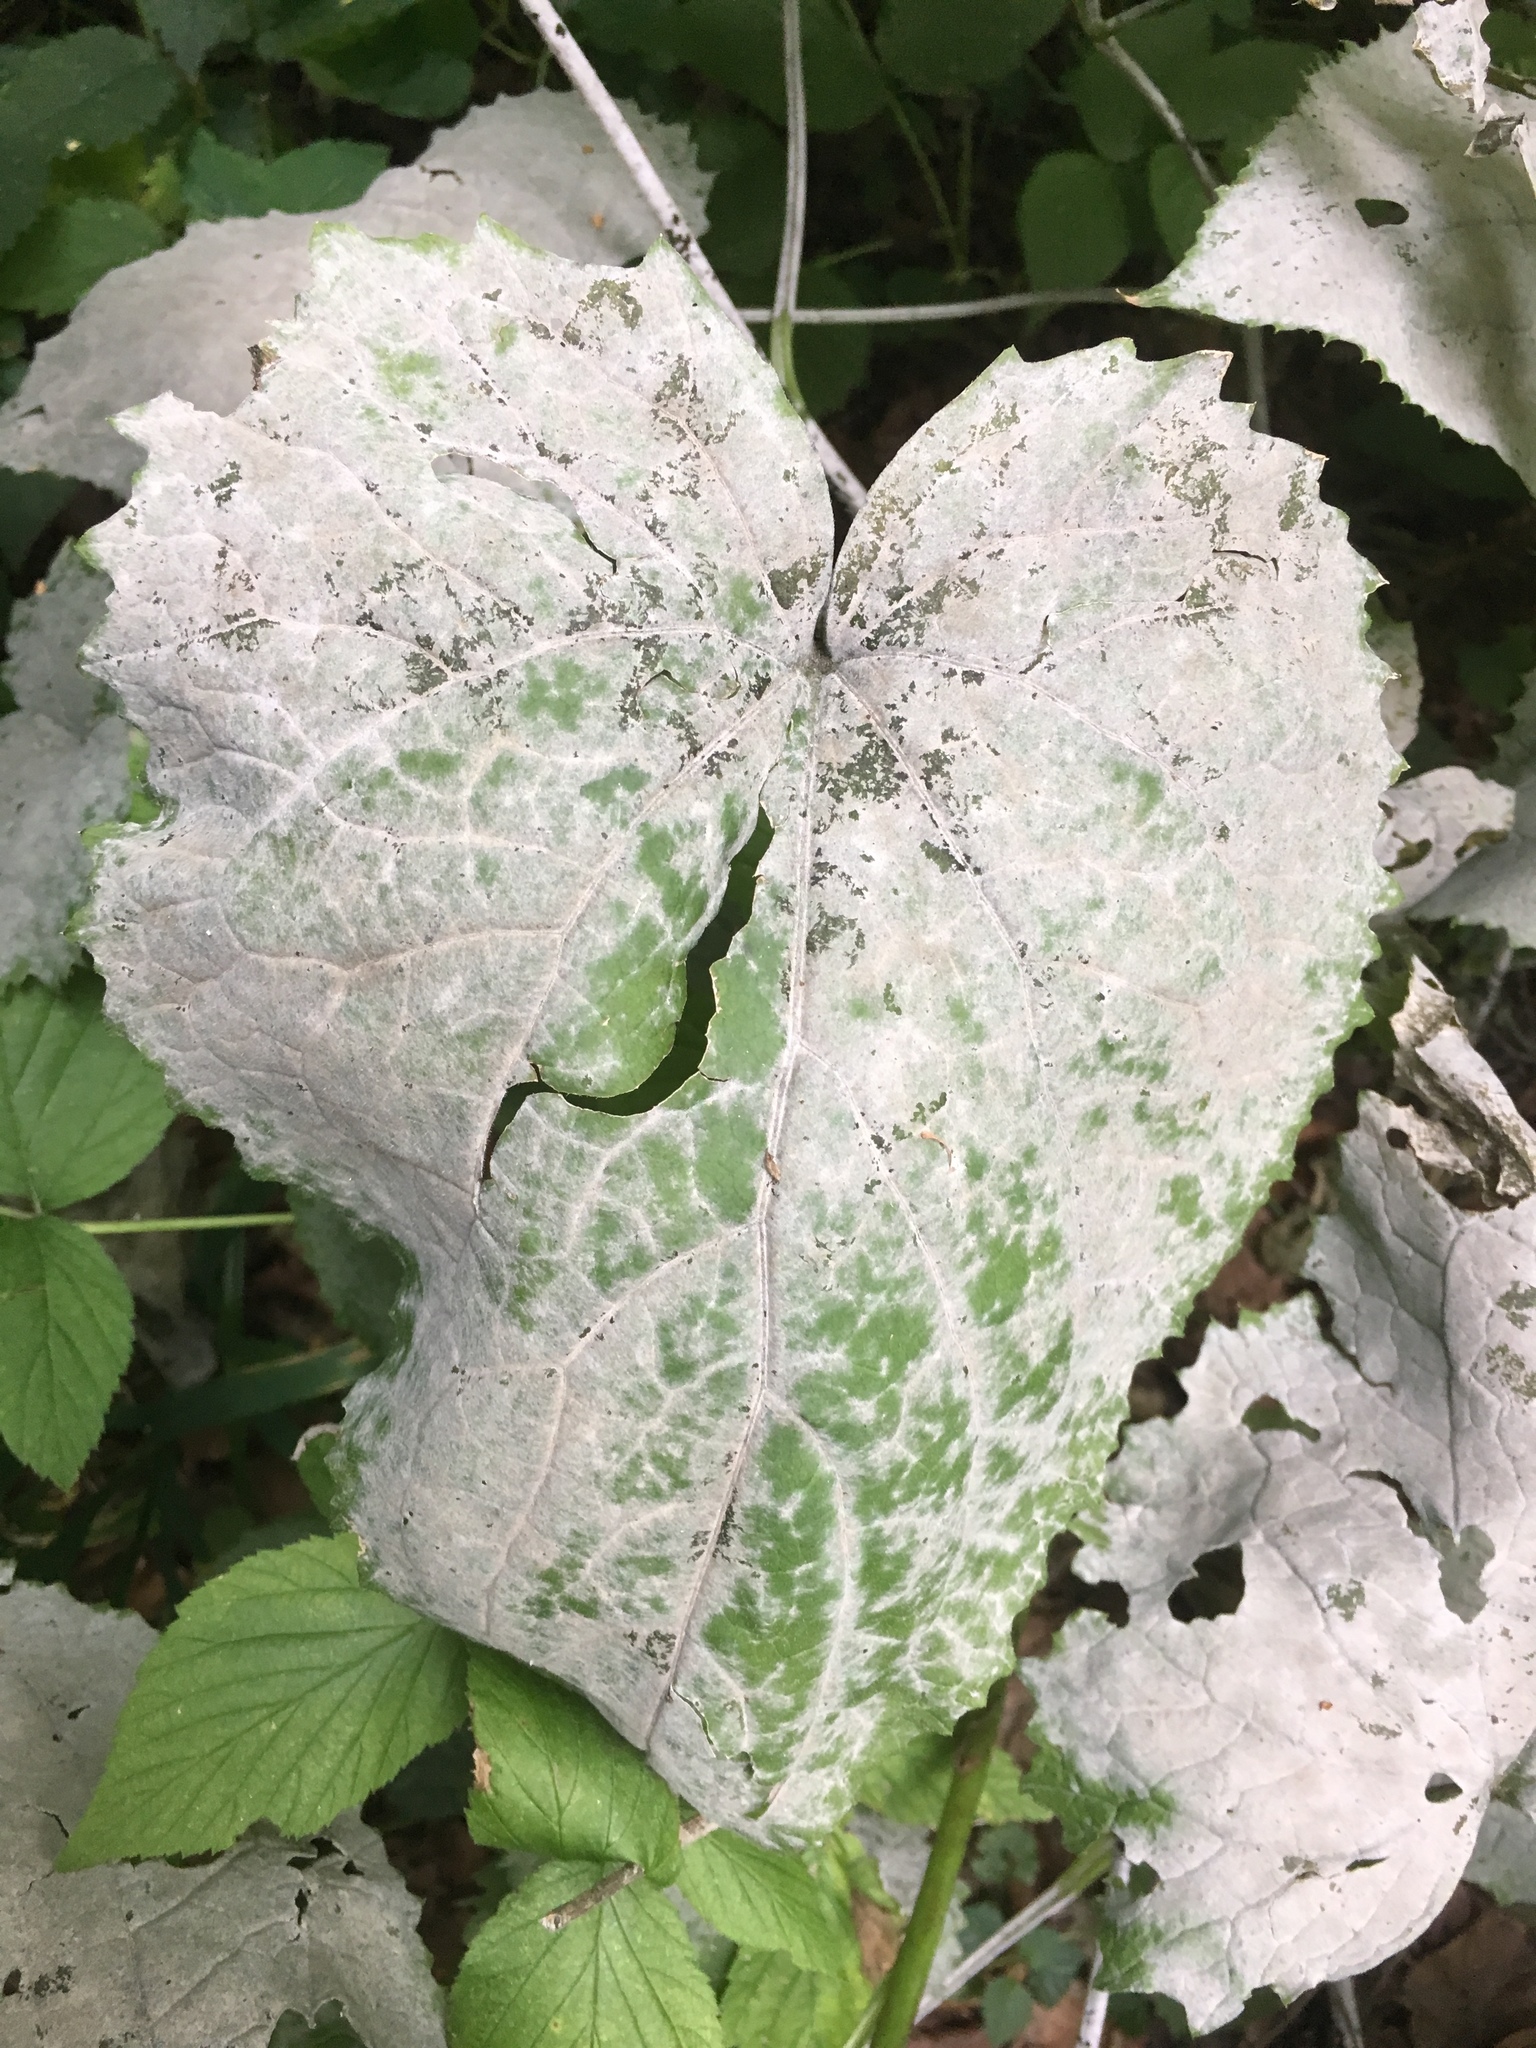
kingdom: Plantae
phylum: Tracheophyta
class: Magnoliopsida
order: Brassicales
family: Brassicaceae
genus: Lunaria
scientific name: Lunaria rediviva
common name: Perennial honesty
